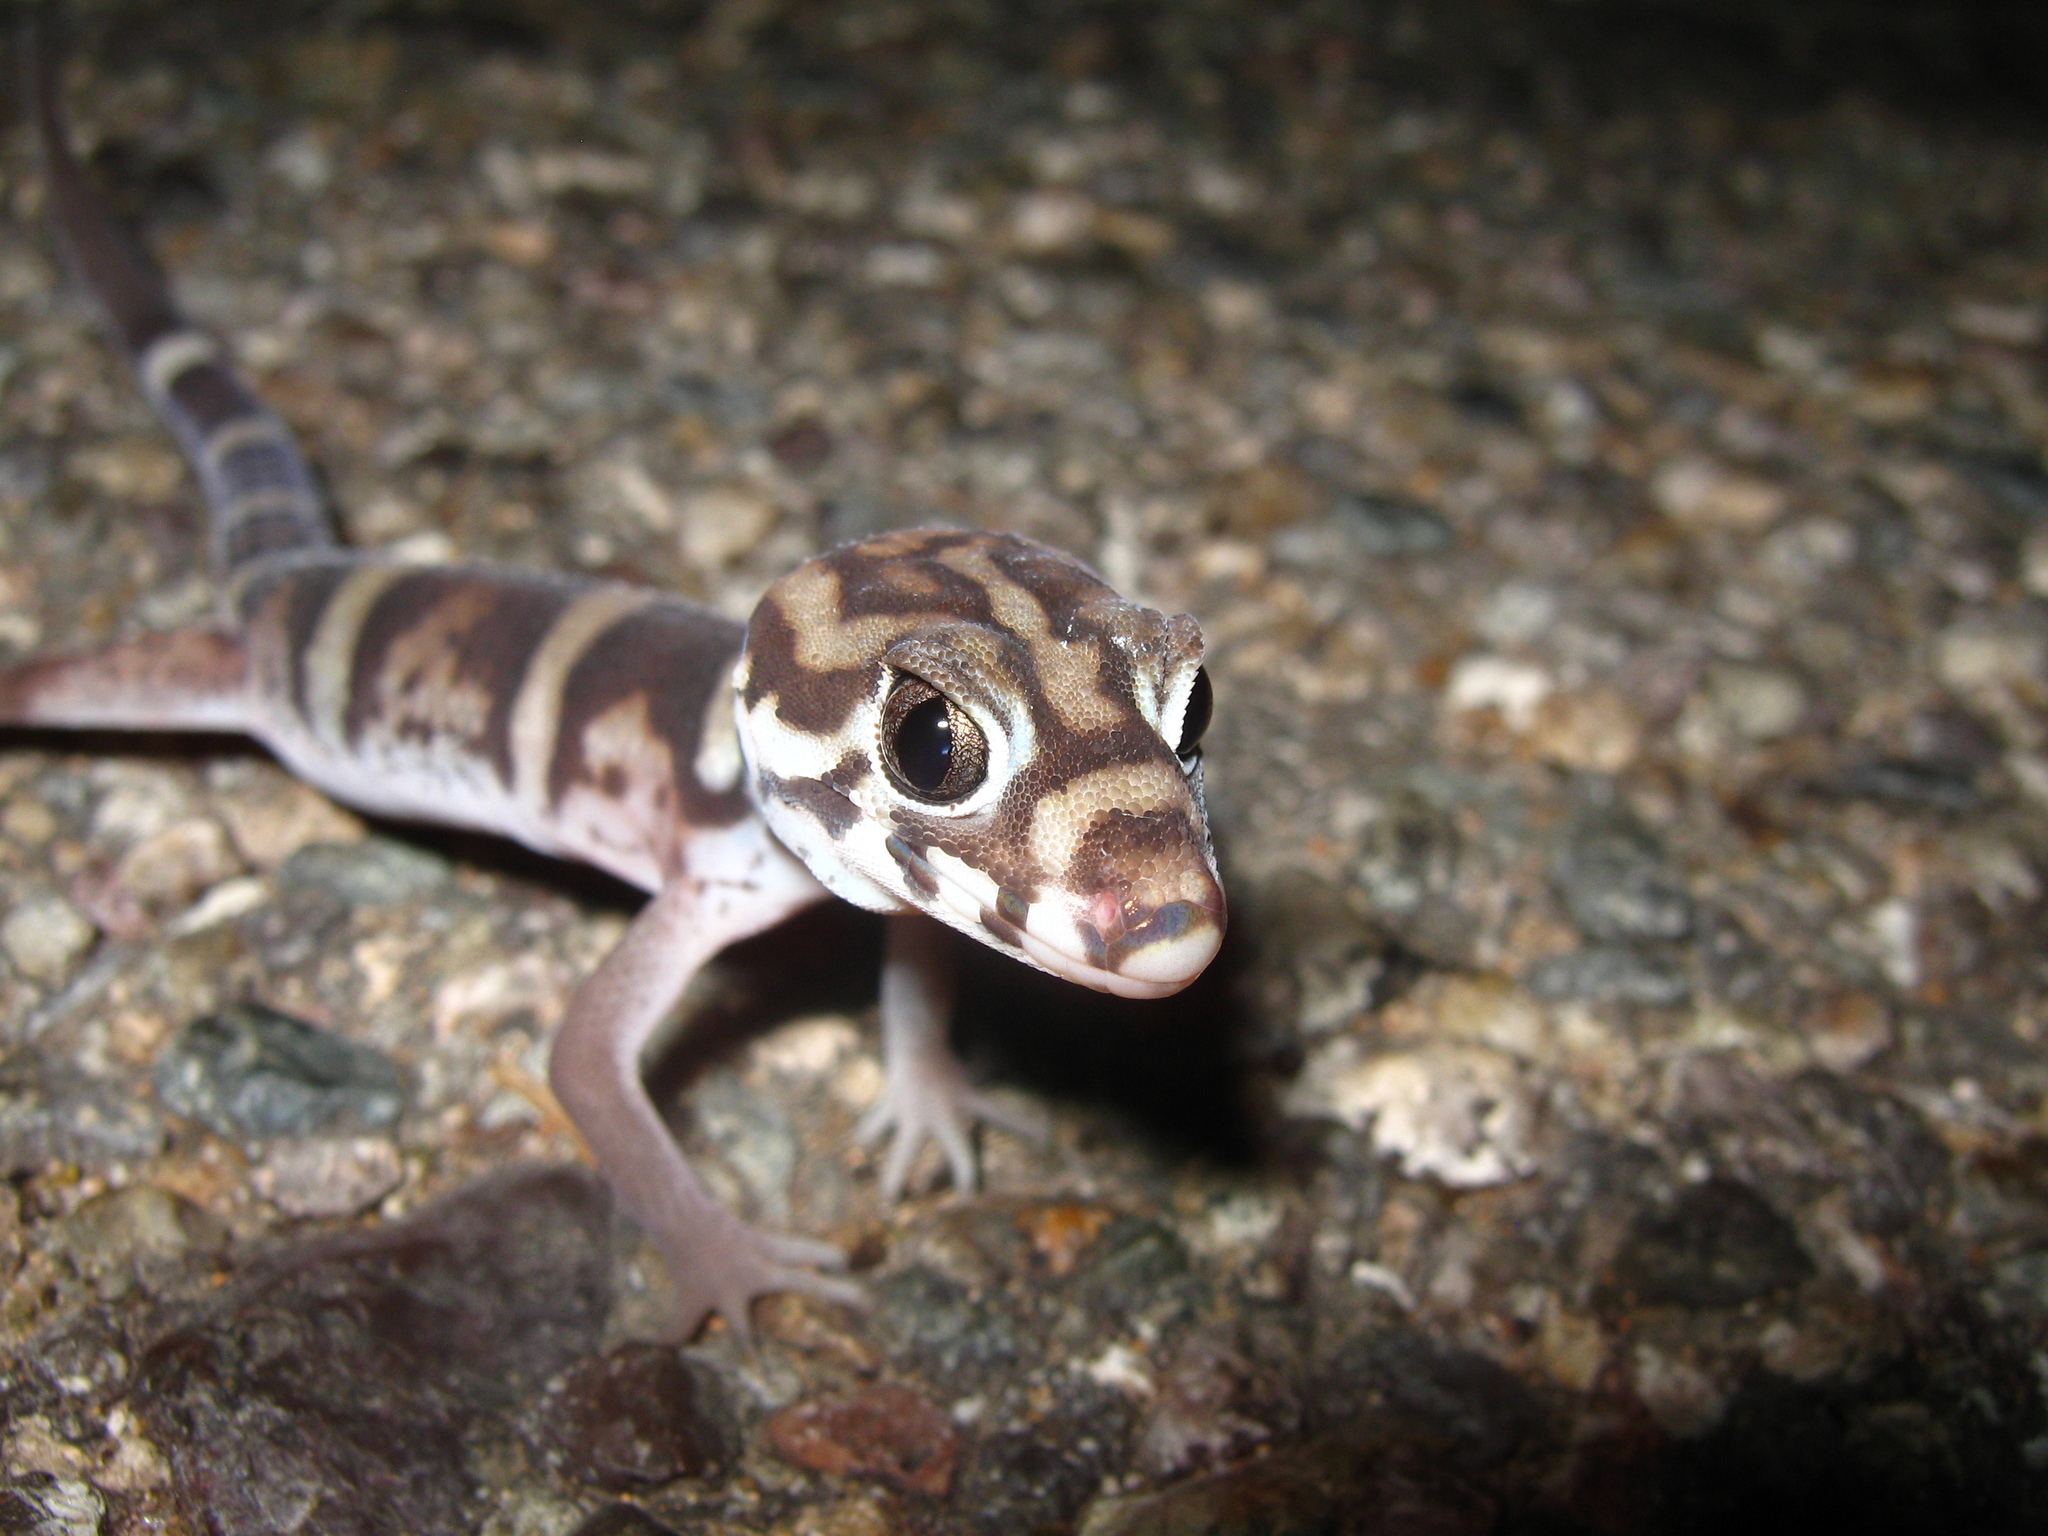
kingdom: Animalia
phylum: Chordata
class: Squamata
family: Eublepharidae
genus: Coleonyx
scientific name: Coleonyx
